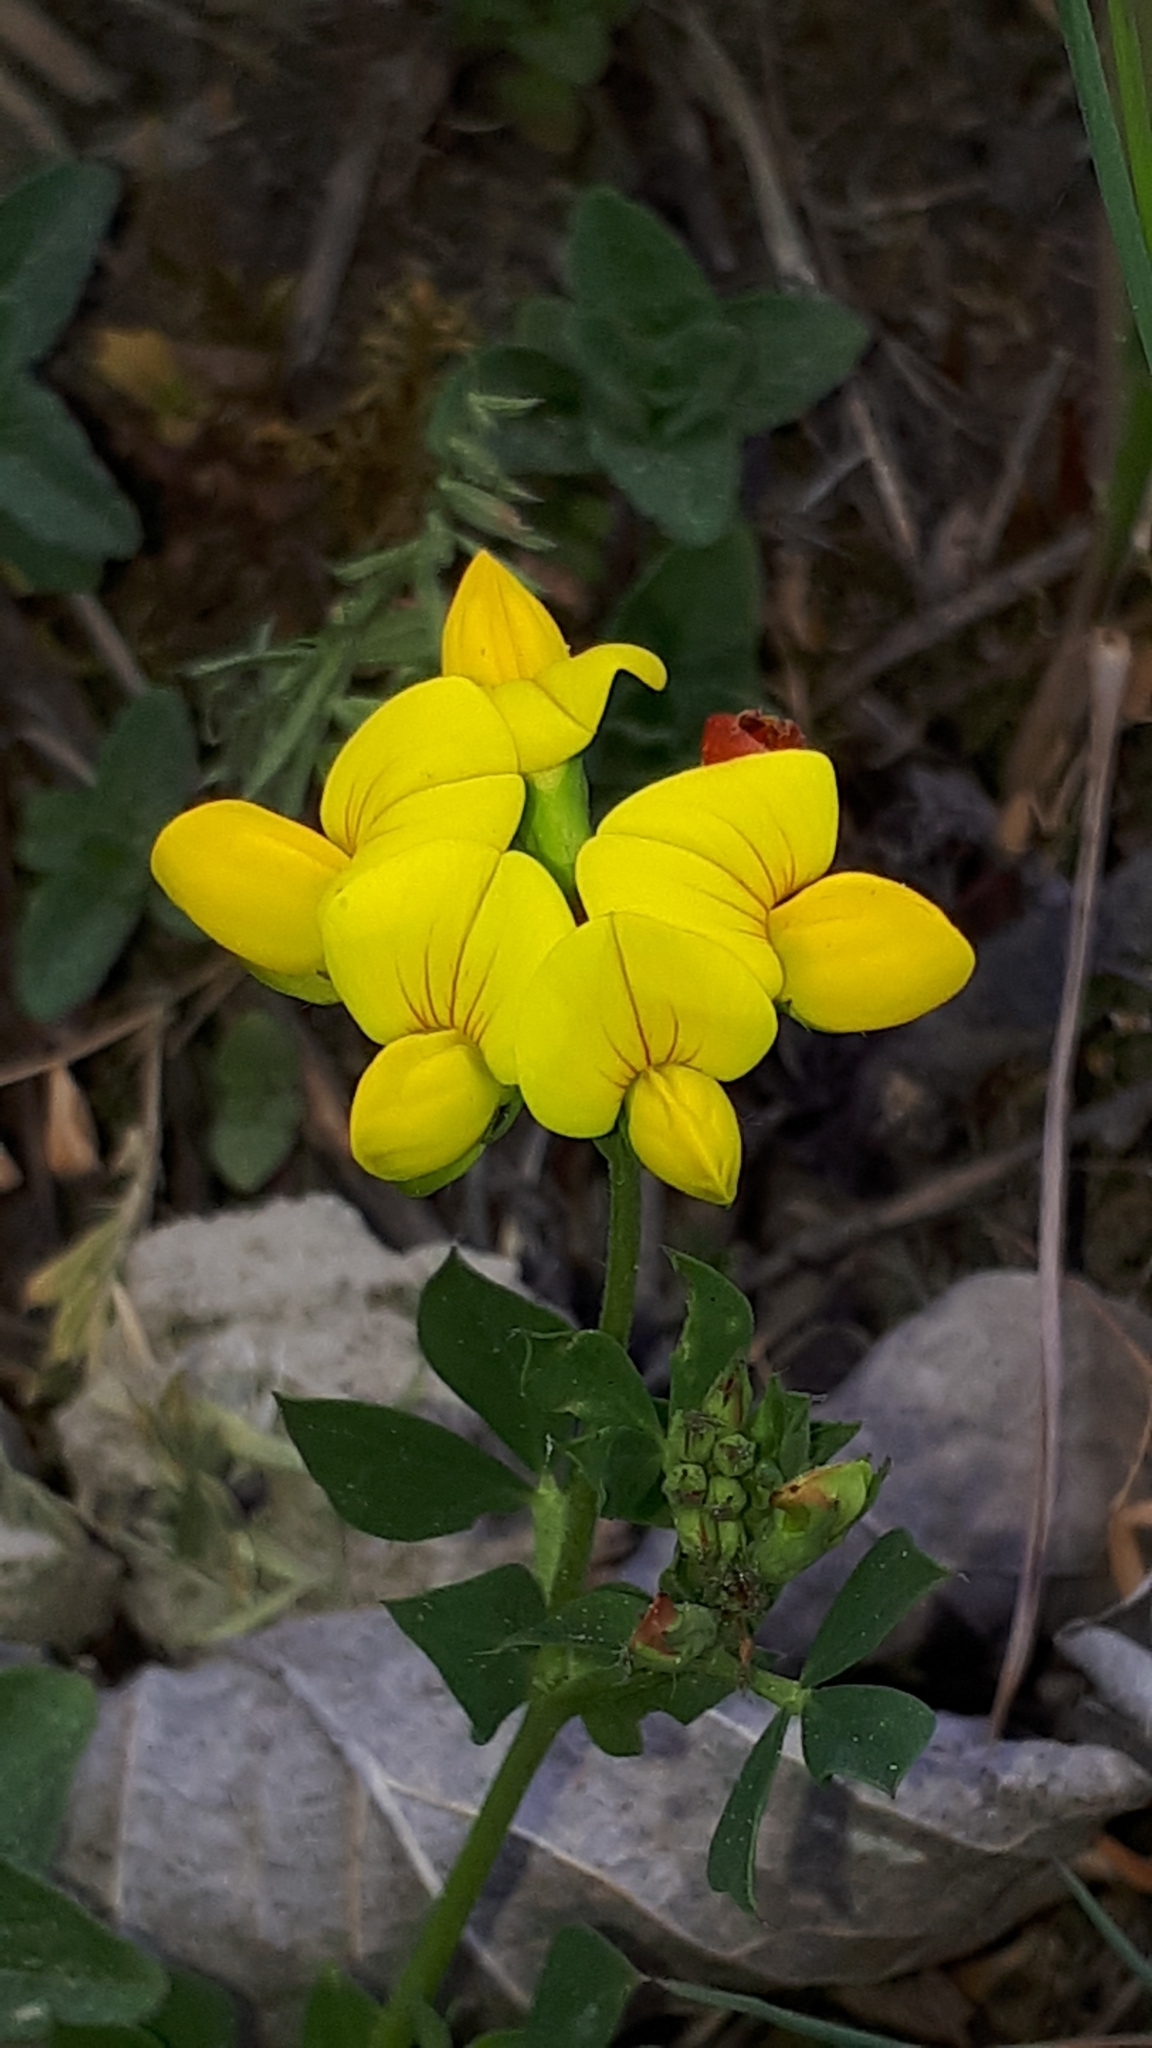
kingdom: Plantae
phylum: Tracheophyta
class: Magnoliopsida
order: Fabales
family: Fabaceae
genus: Lotus
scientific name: Lotus corniculatus
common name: Common bird's-foot-trefoil
